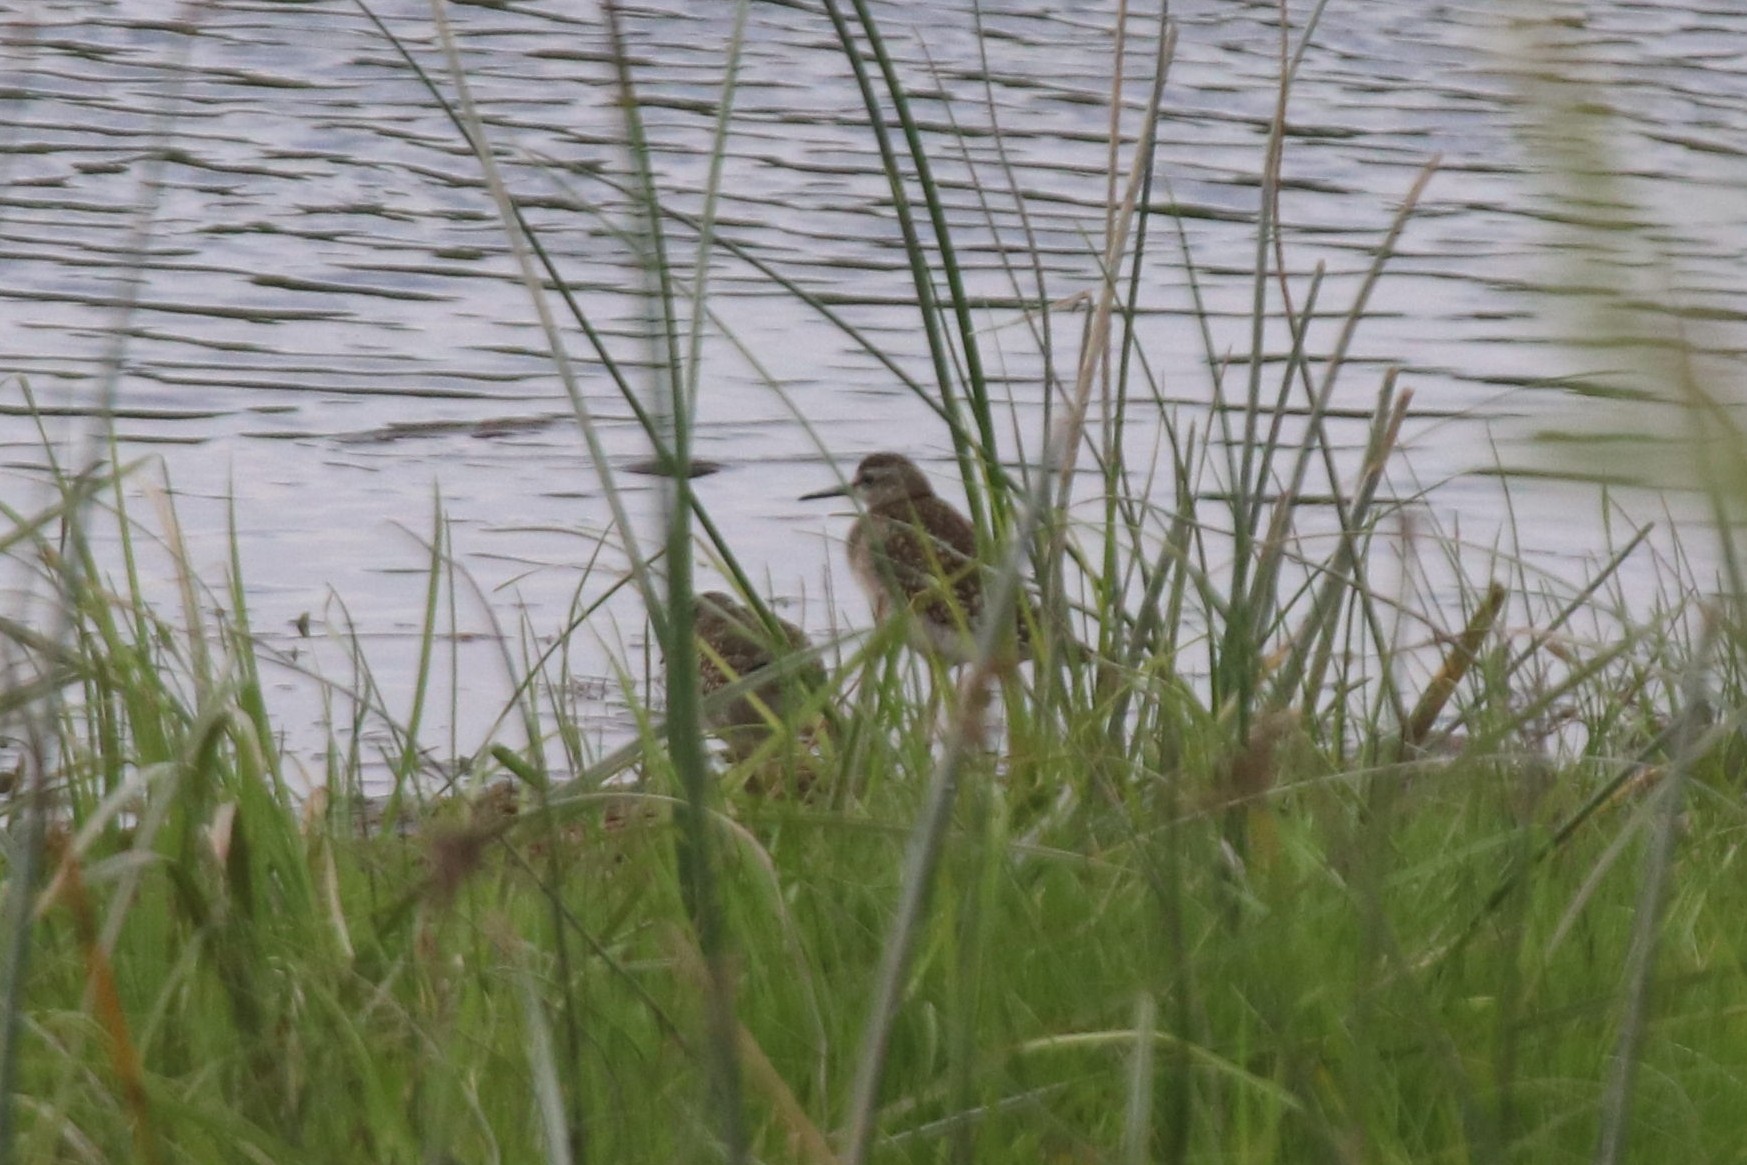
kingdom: Animalia
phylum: Chordata
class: Aves
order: Charadriiformes
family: Scolopacidae
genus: Tringa
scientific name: Tringa glareola
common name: Wood sandpiper
